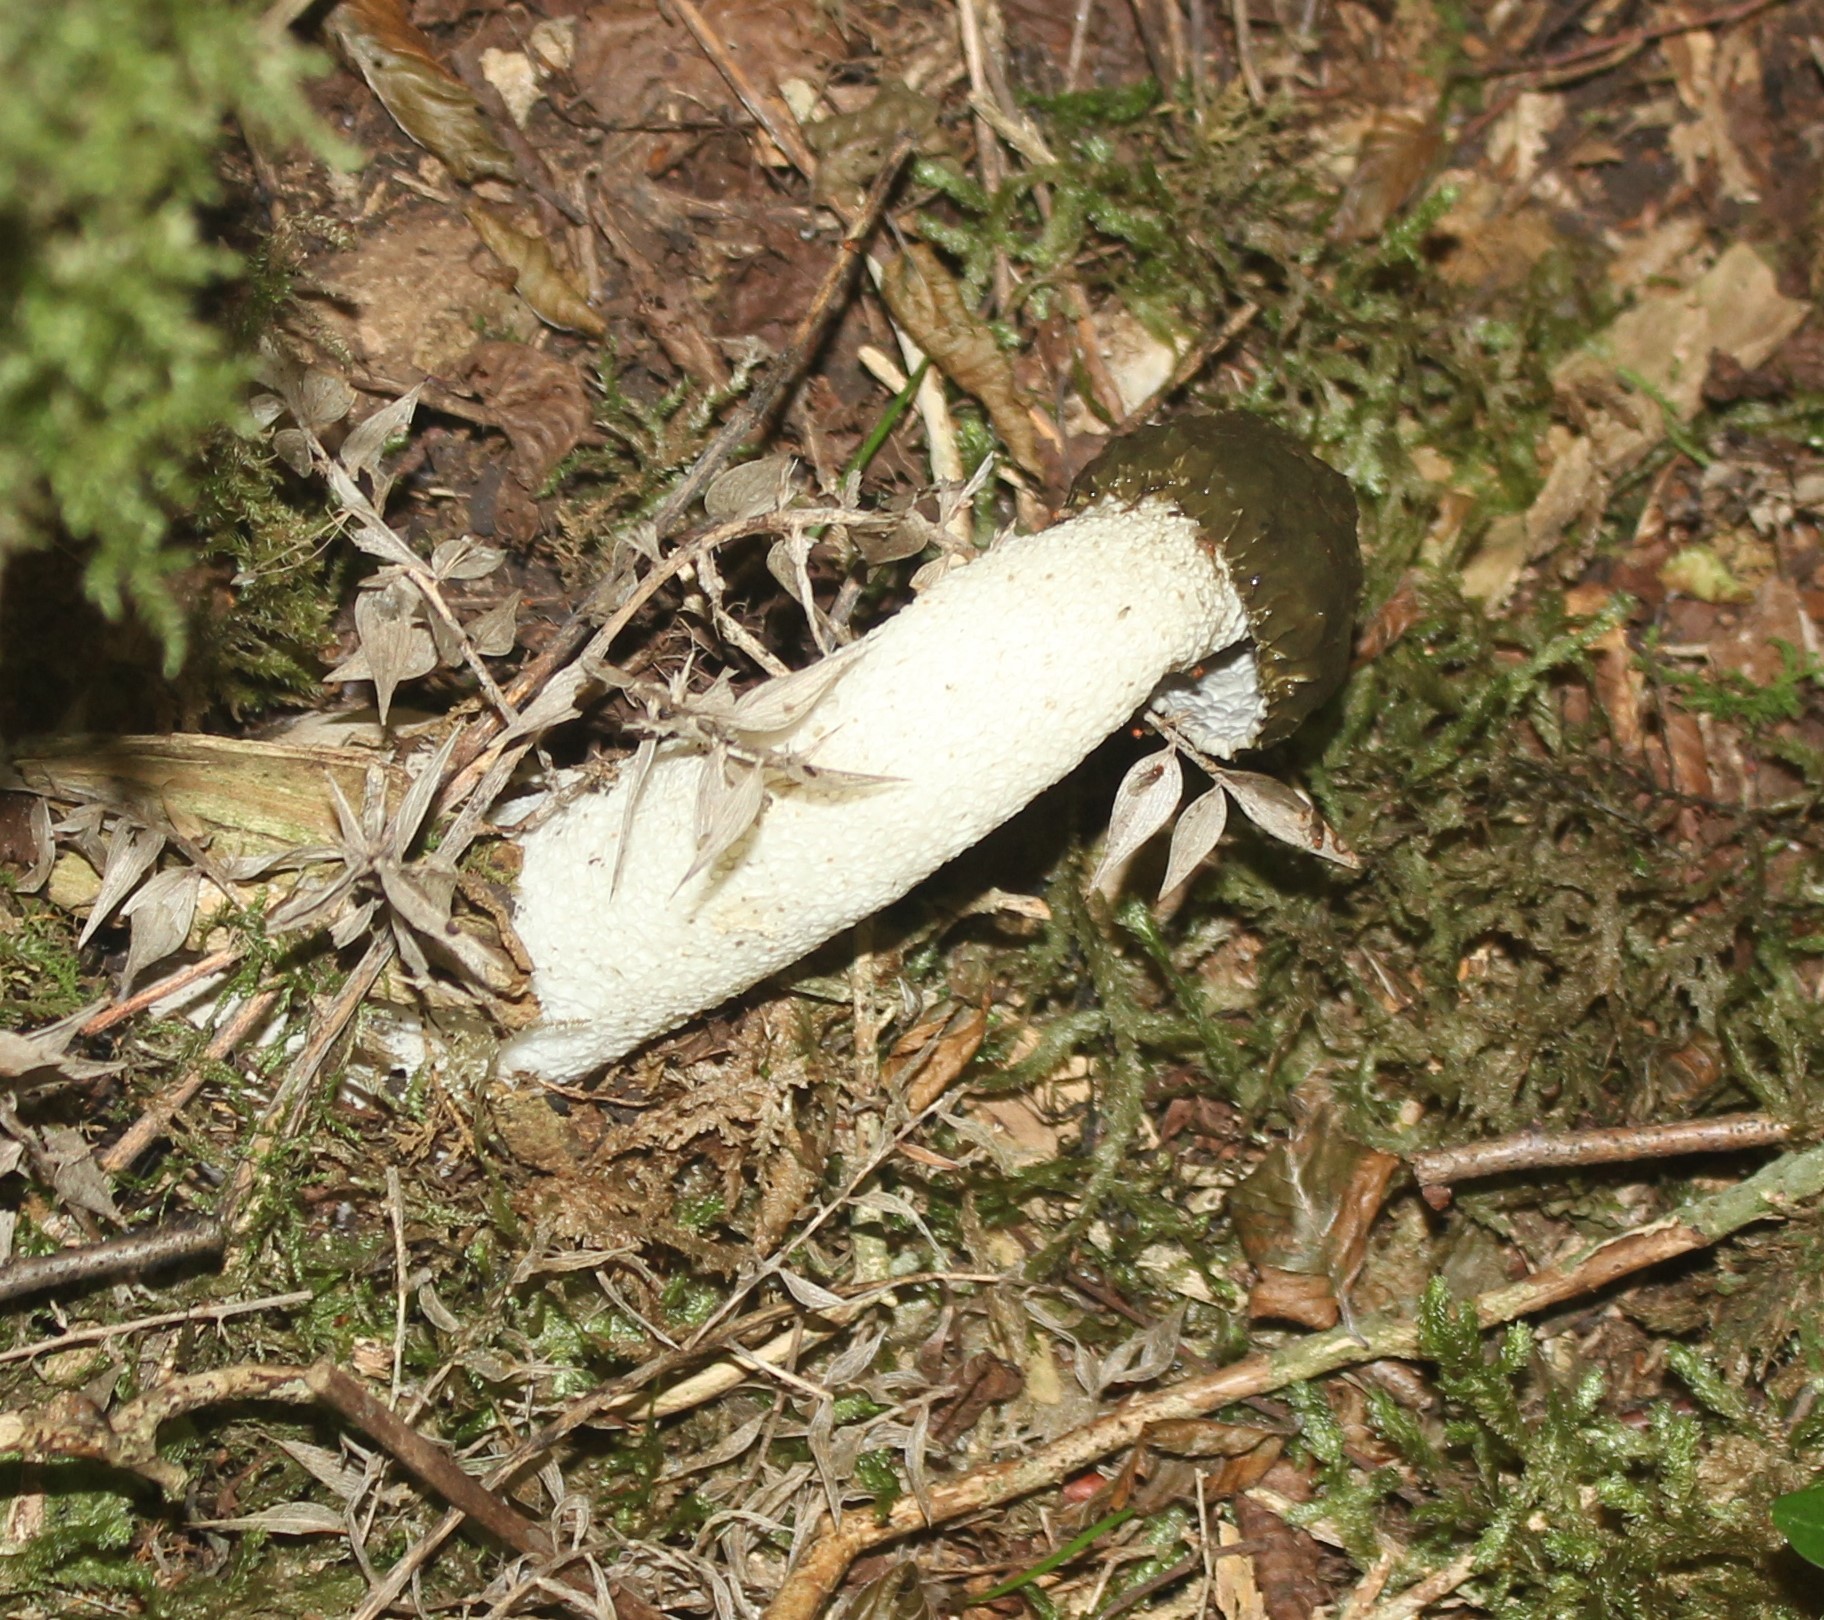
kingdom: Fungi
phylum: Basidiomycota
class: Agaricomycetes
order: Phallales
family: Phallaceae
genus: Phallus
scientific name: Phallus impudicus
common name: Common stinkhorn
